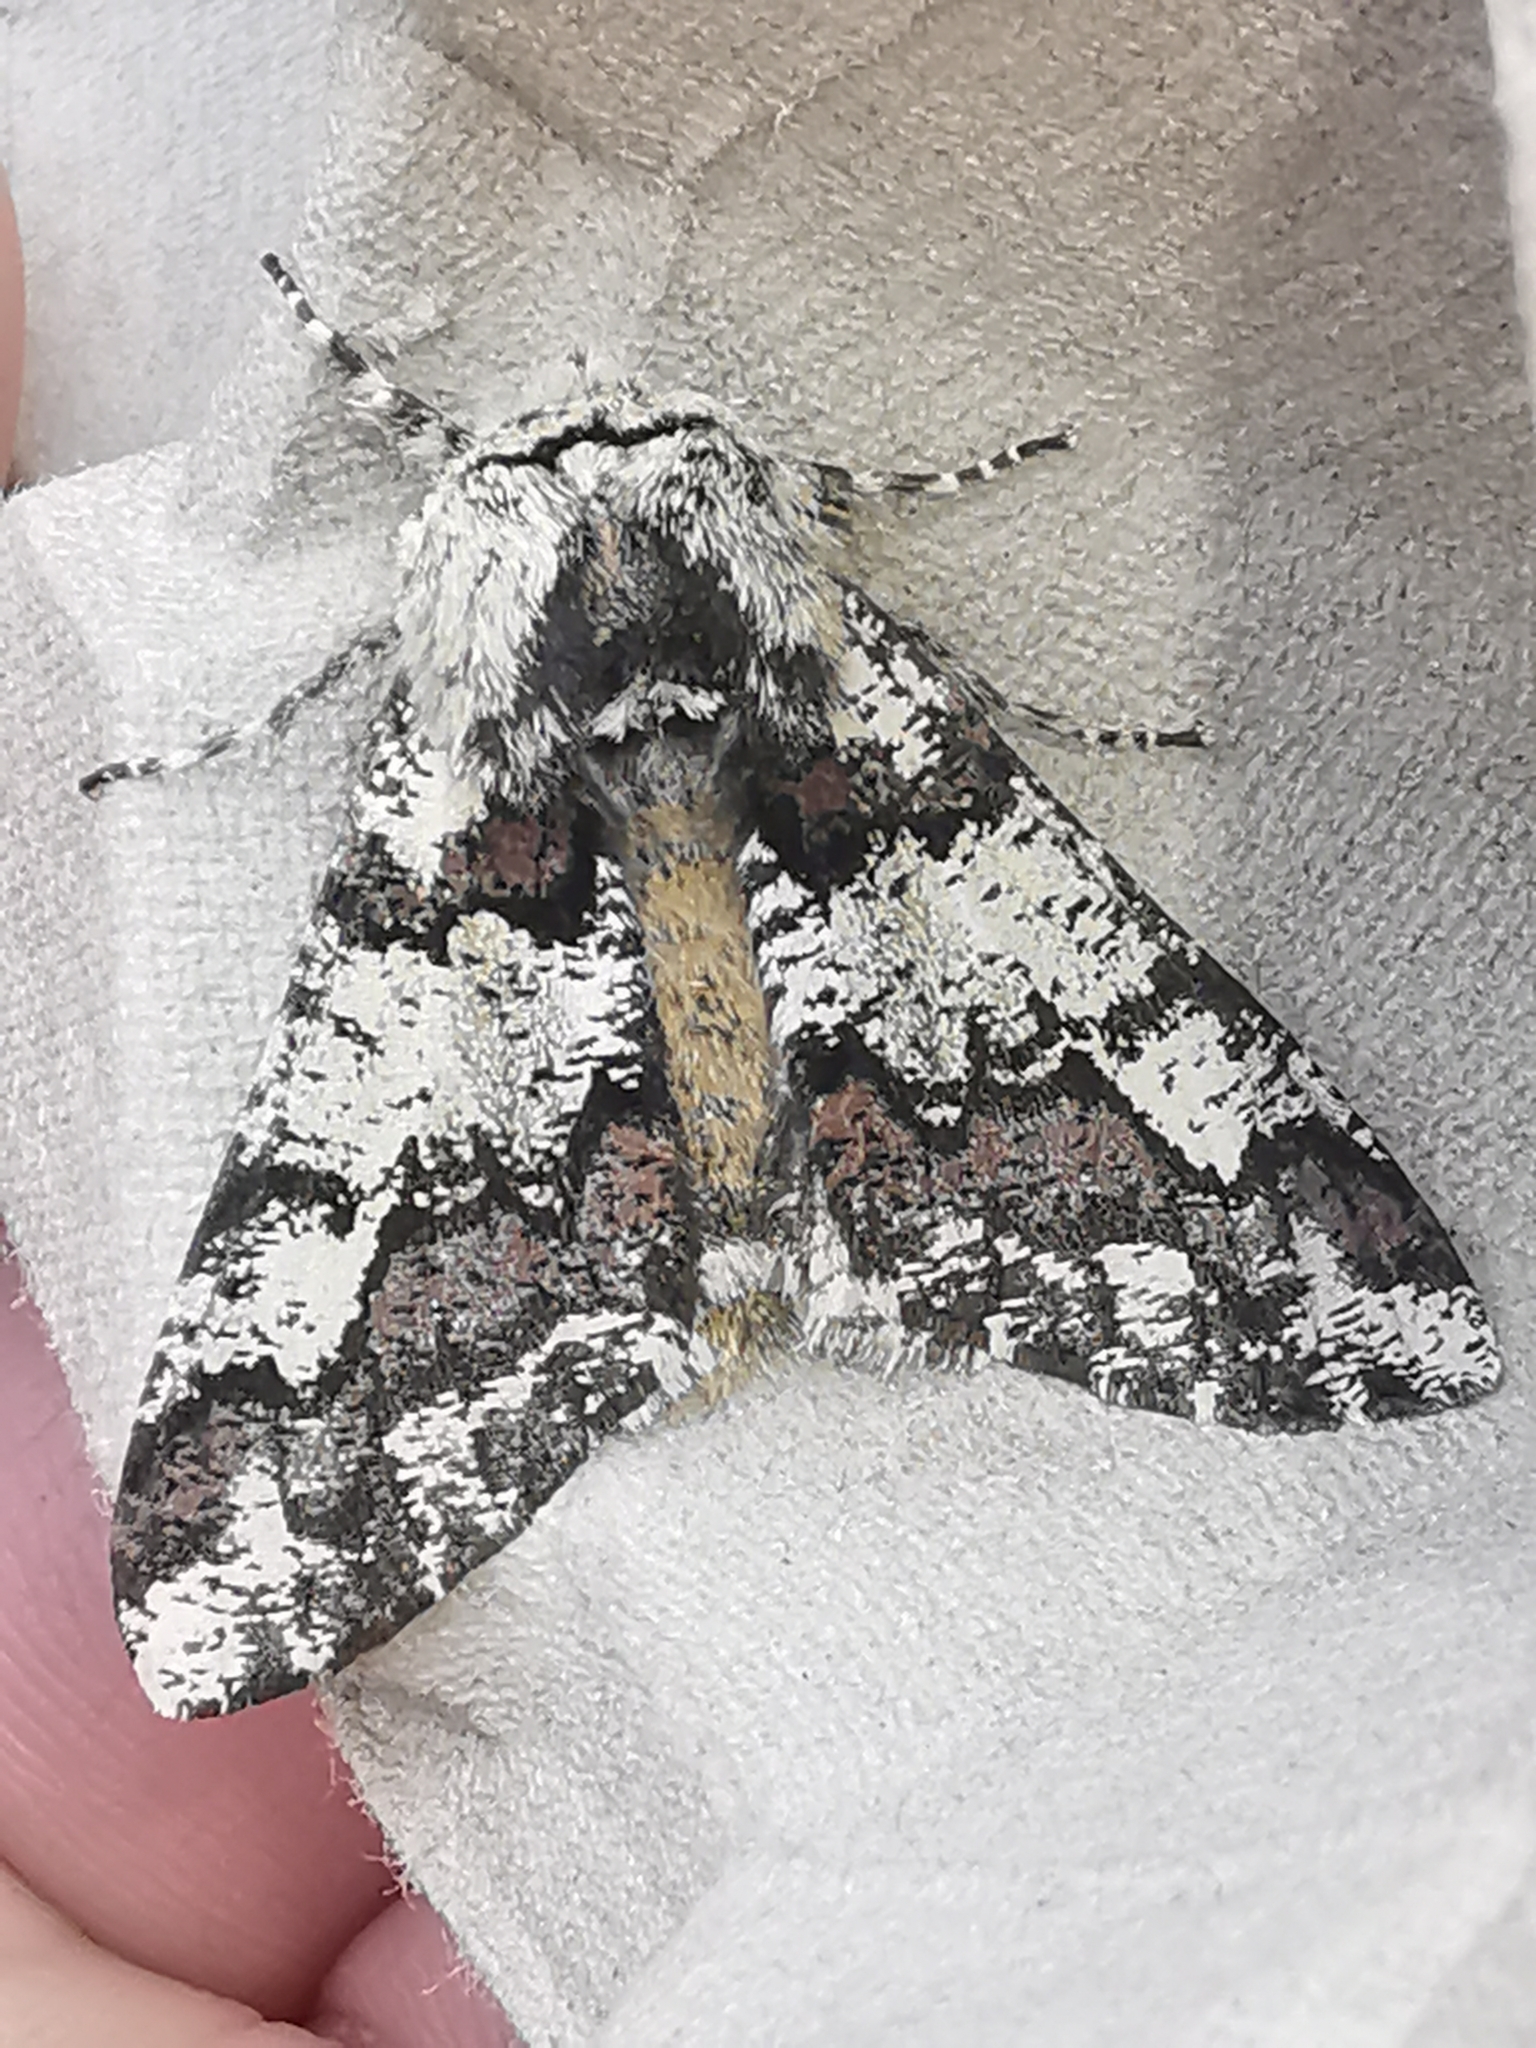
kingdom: Animalia
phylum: Arthropoda
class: Insecta
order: Lepidoptera
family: Geometridae
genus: Biston
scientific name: Biston strataria
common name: Oak beauty
